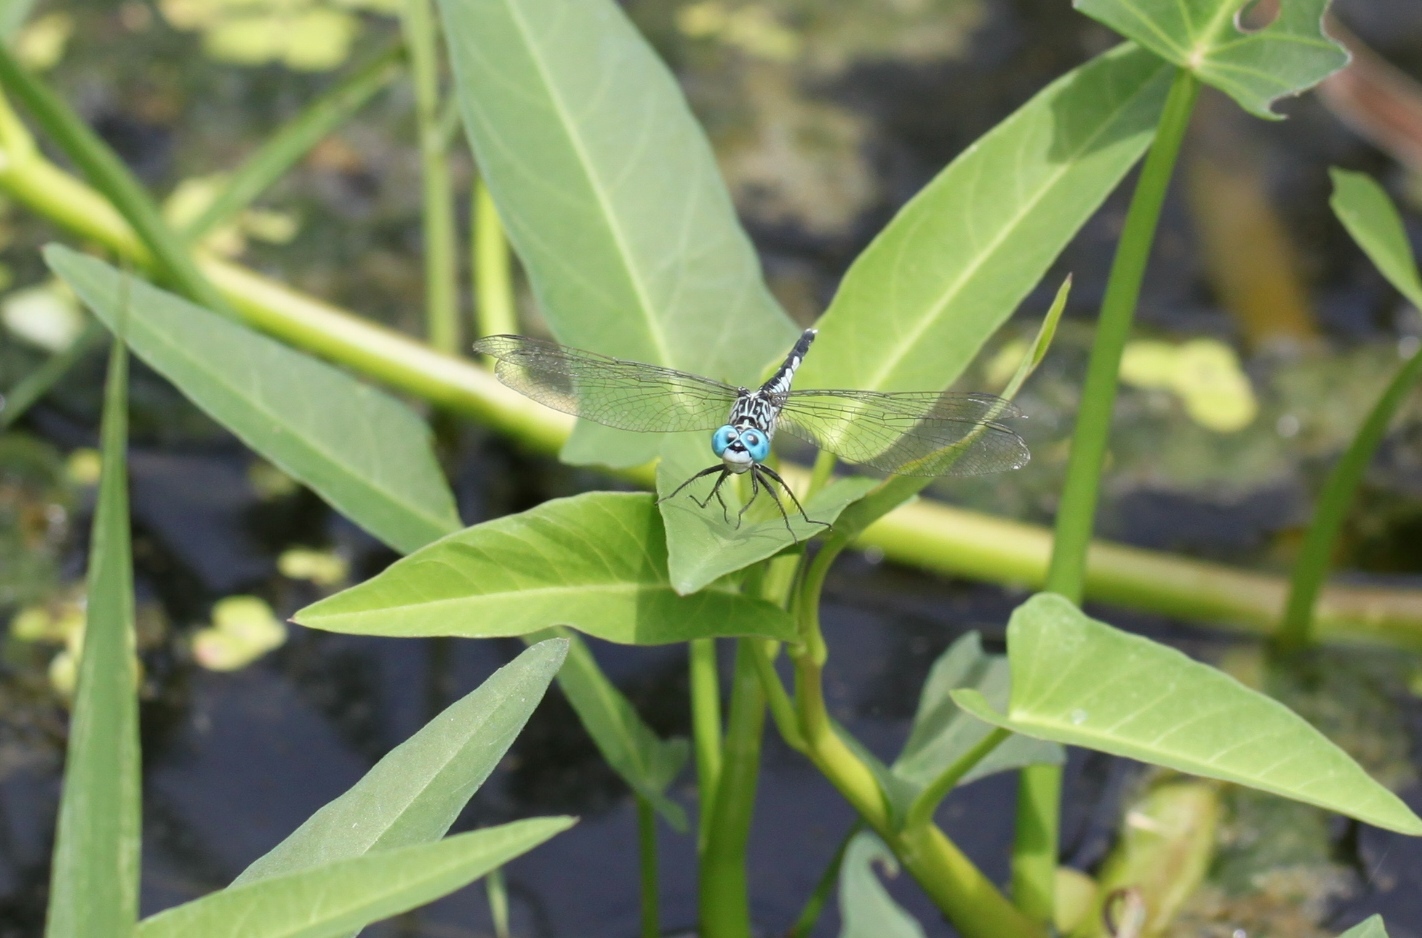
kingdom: Animalia
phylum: Arthropoda
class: Insecta
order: Odonata
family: Libellulidae
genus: Acisoma
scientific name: Acisoma panorpoides
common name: Asian pintail
